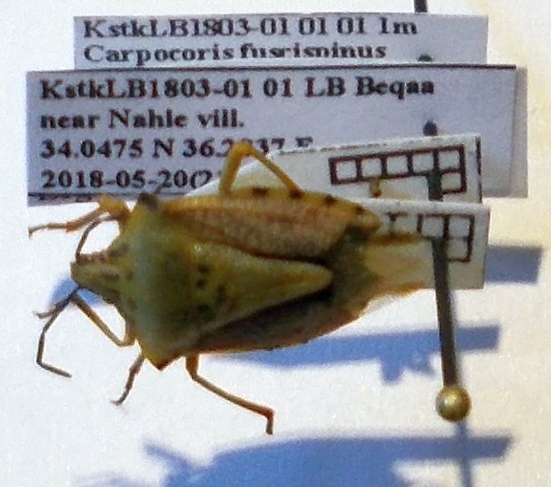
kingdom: Animalia
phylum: Arthropoda
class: Insecta
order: Hemiptera
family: Pentatomidae
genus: Carpocoris
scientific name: Carpocoris coreanus
